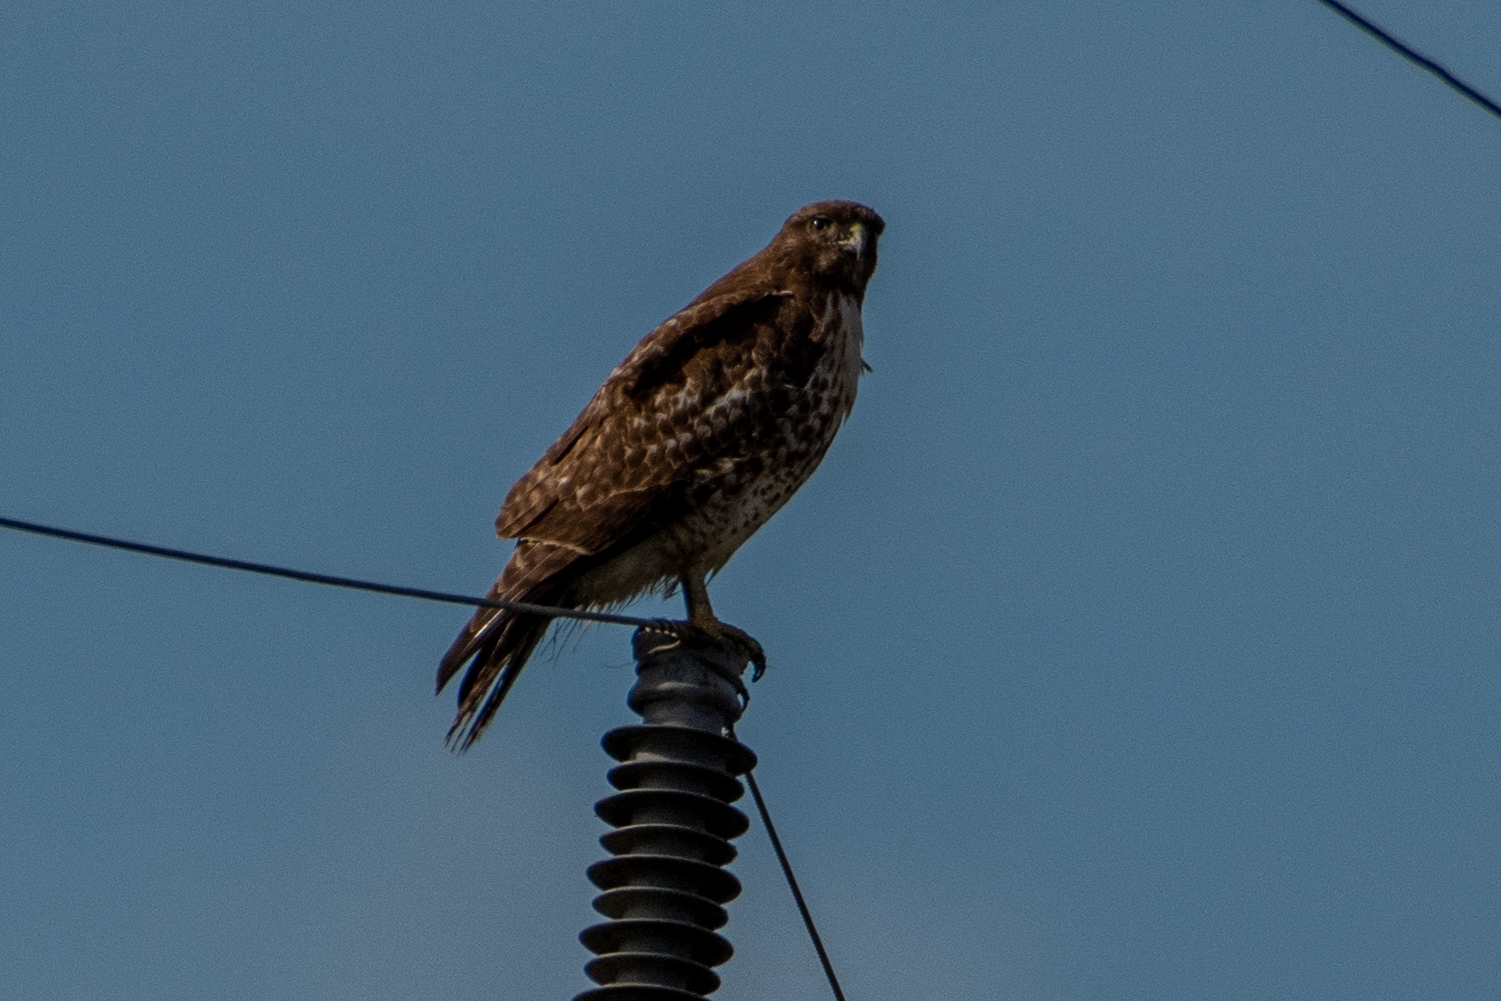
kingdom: Animalia
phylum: Chordata
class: Aves
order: Accipitriformes
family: Accipitridae
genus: Buteo
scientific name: Buteo jamaicensis
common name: Red-tailed hawk
